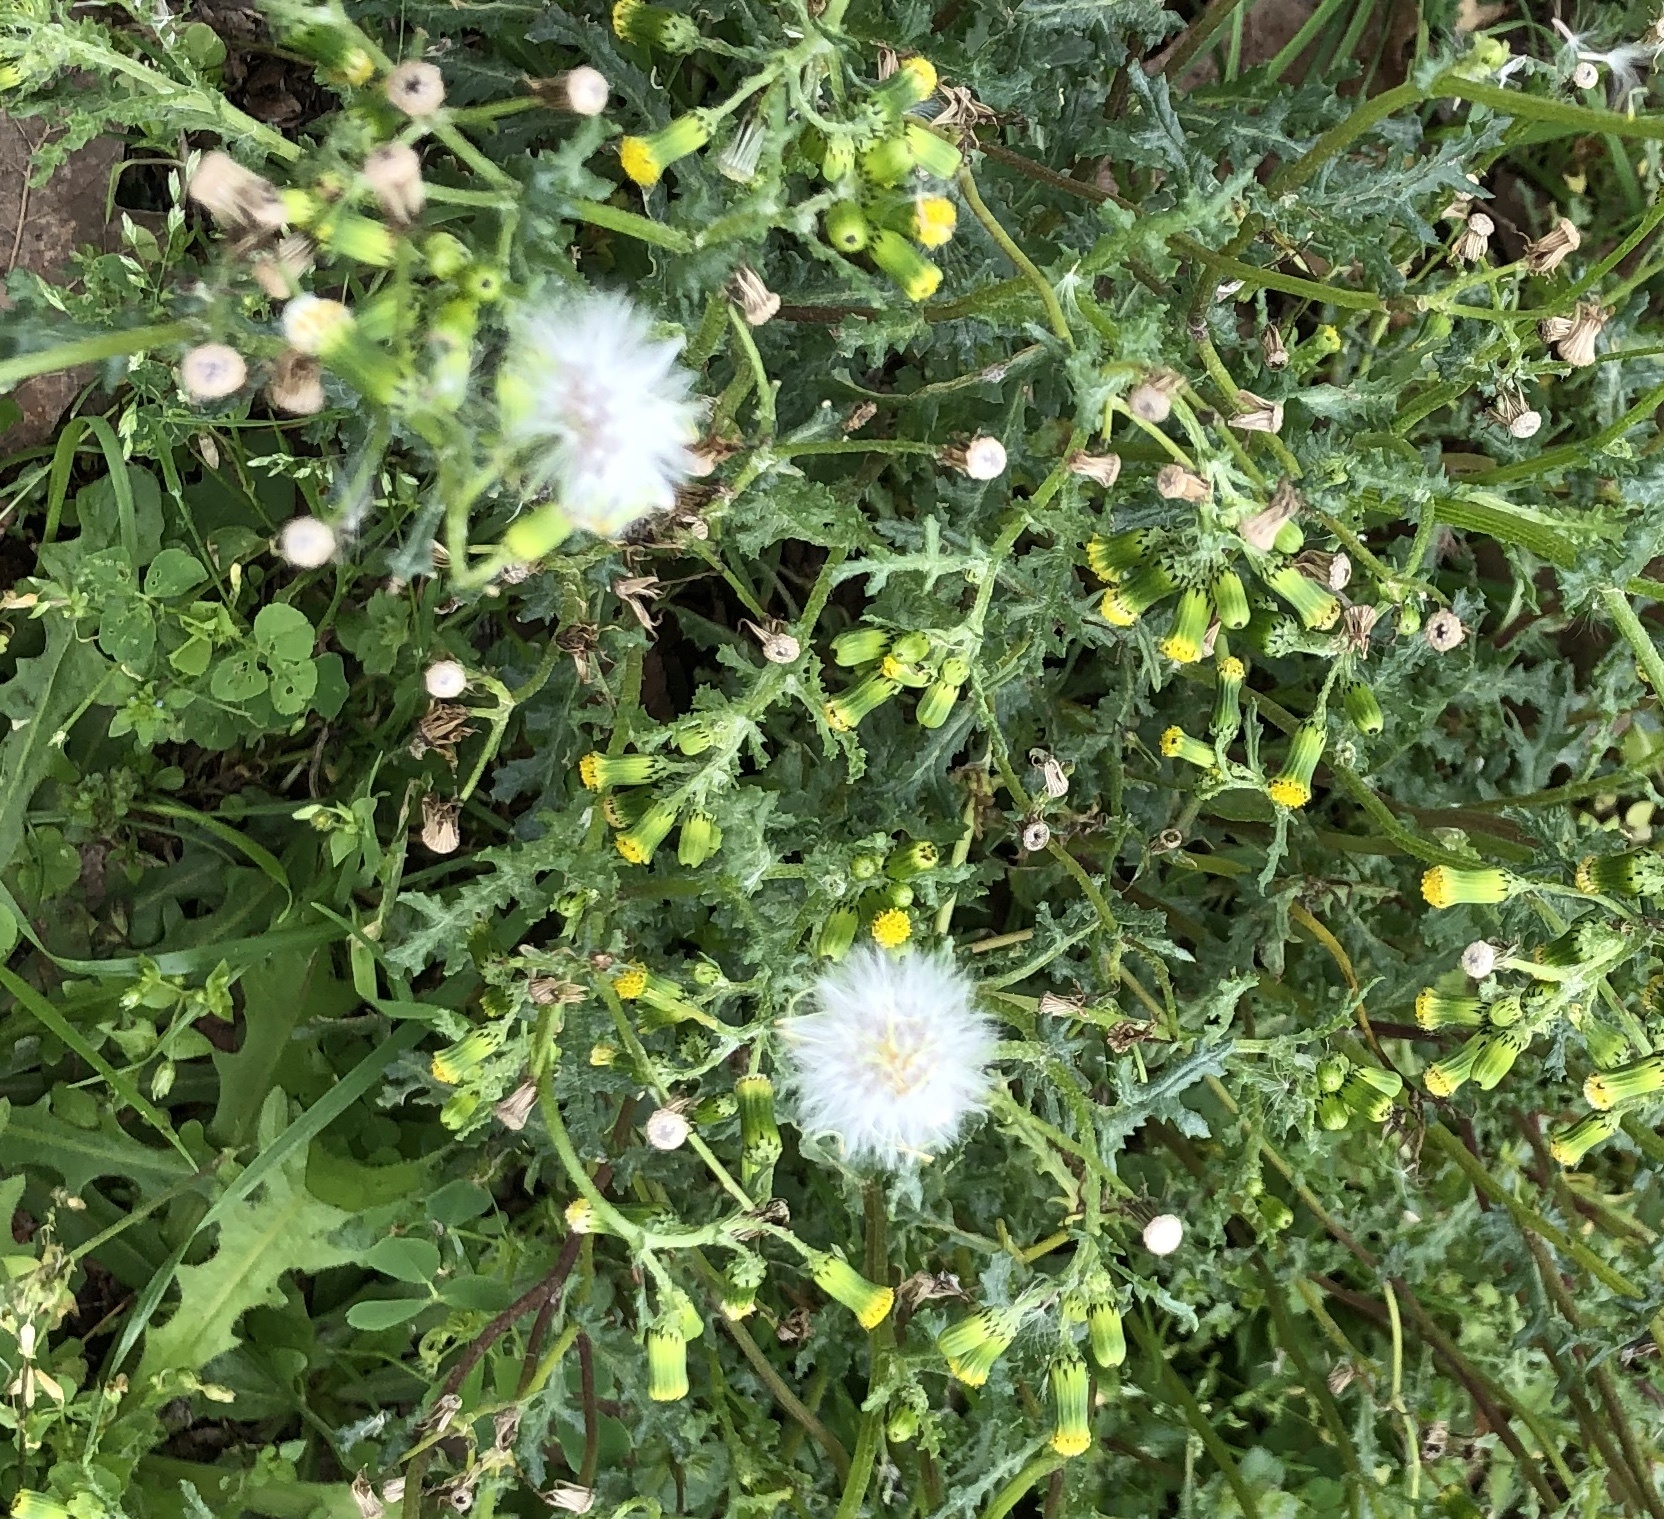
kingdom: Plantae
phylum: Tracheophyta
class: Magnoliopsida
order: Asterales
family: Asteraceae
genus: Senecio
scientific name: Senecio vulgaris
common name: Old-man-in-the-spring
